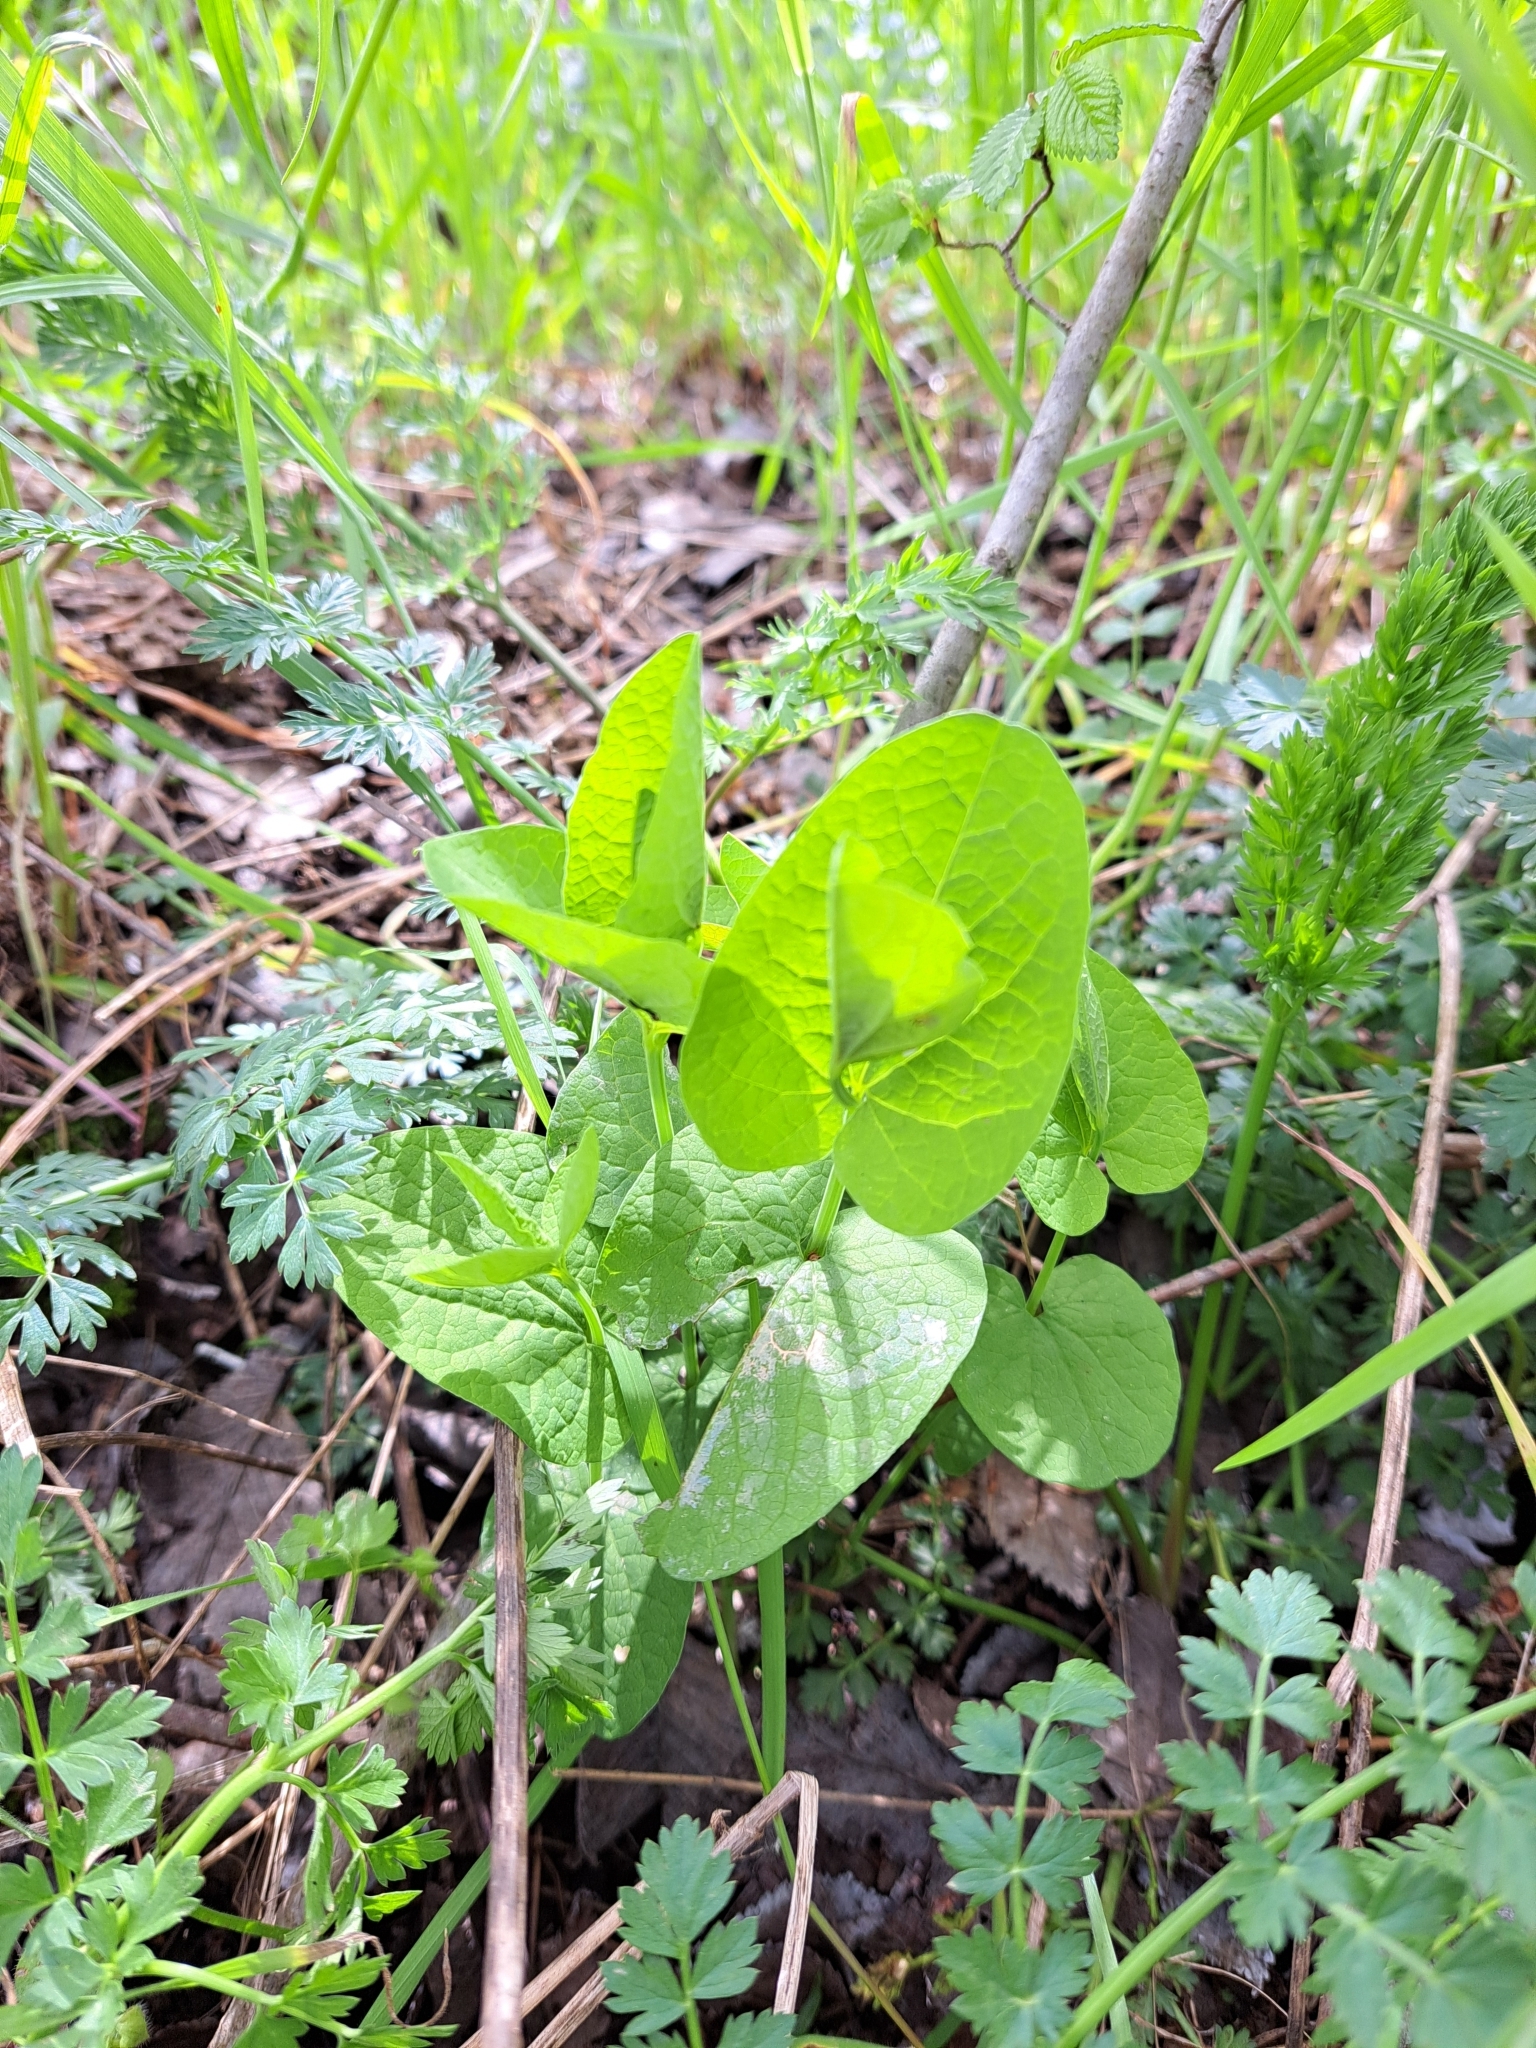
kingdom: Plantae
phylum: Tracheophyta
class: Magnoliopsida
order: Piperales
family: Aristolochiaceae
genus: Aristolochia
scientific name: Aristolochia rotunda
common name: Smearwort
